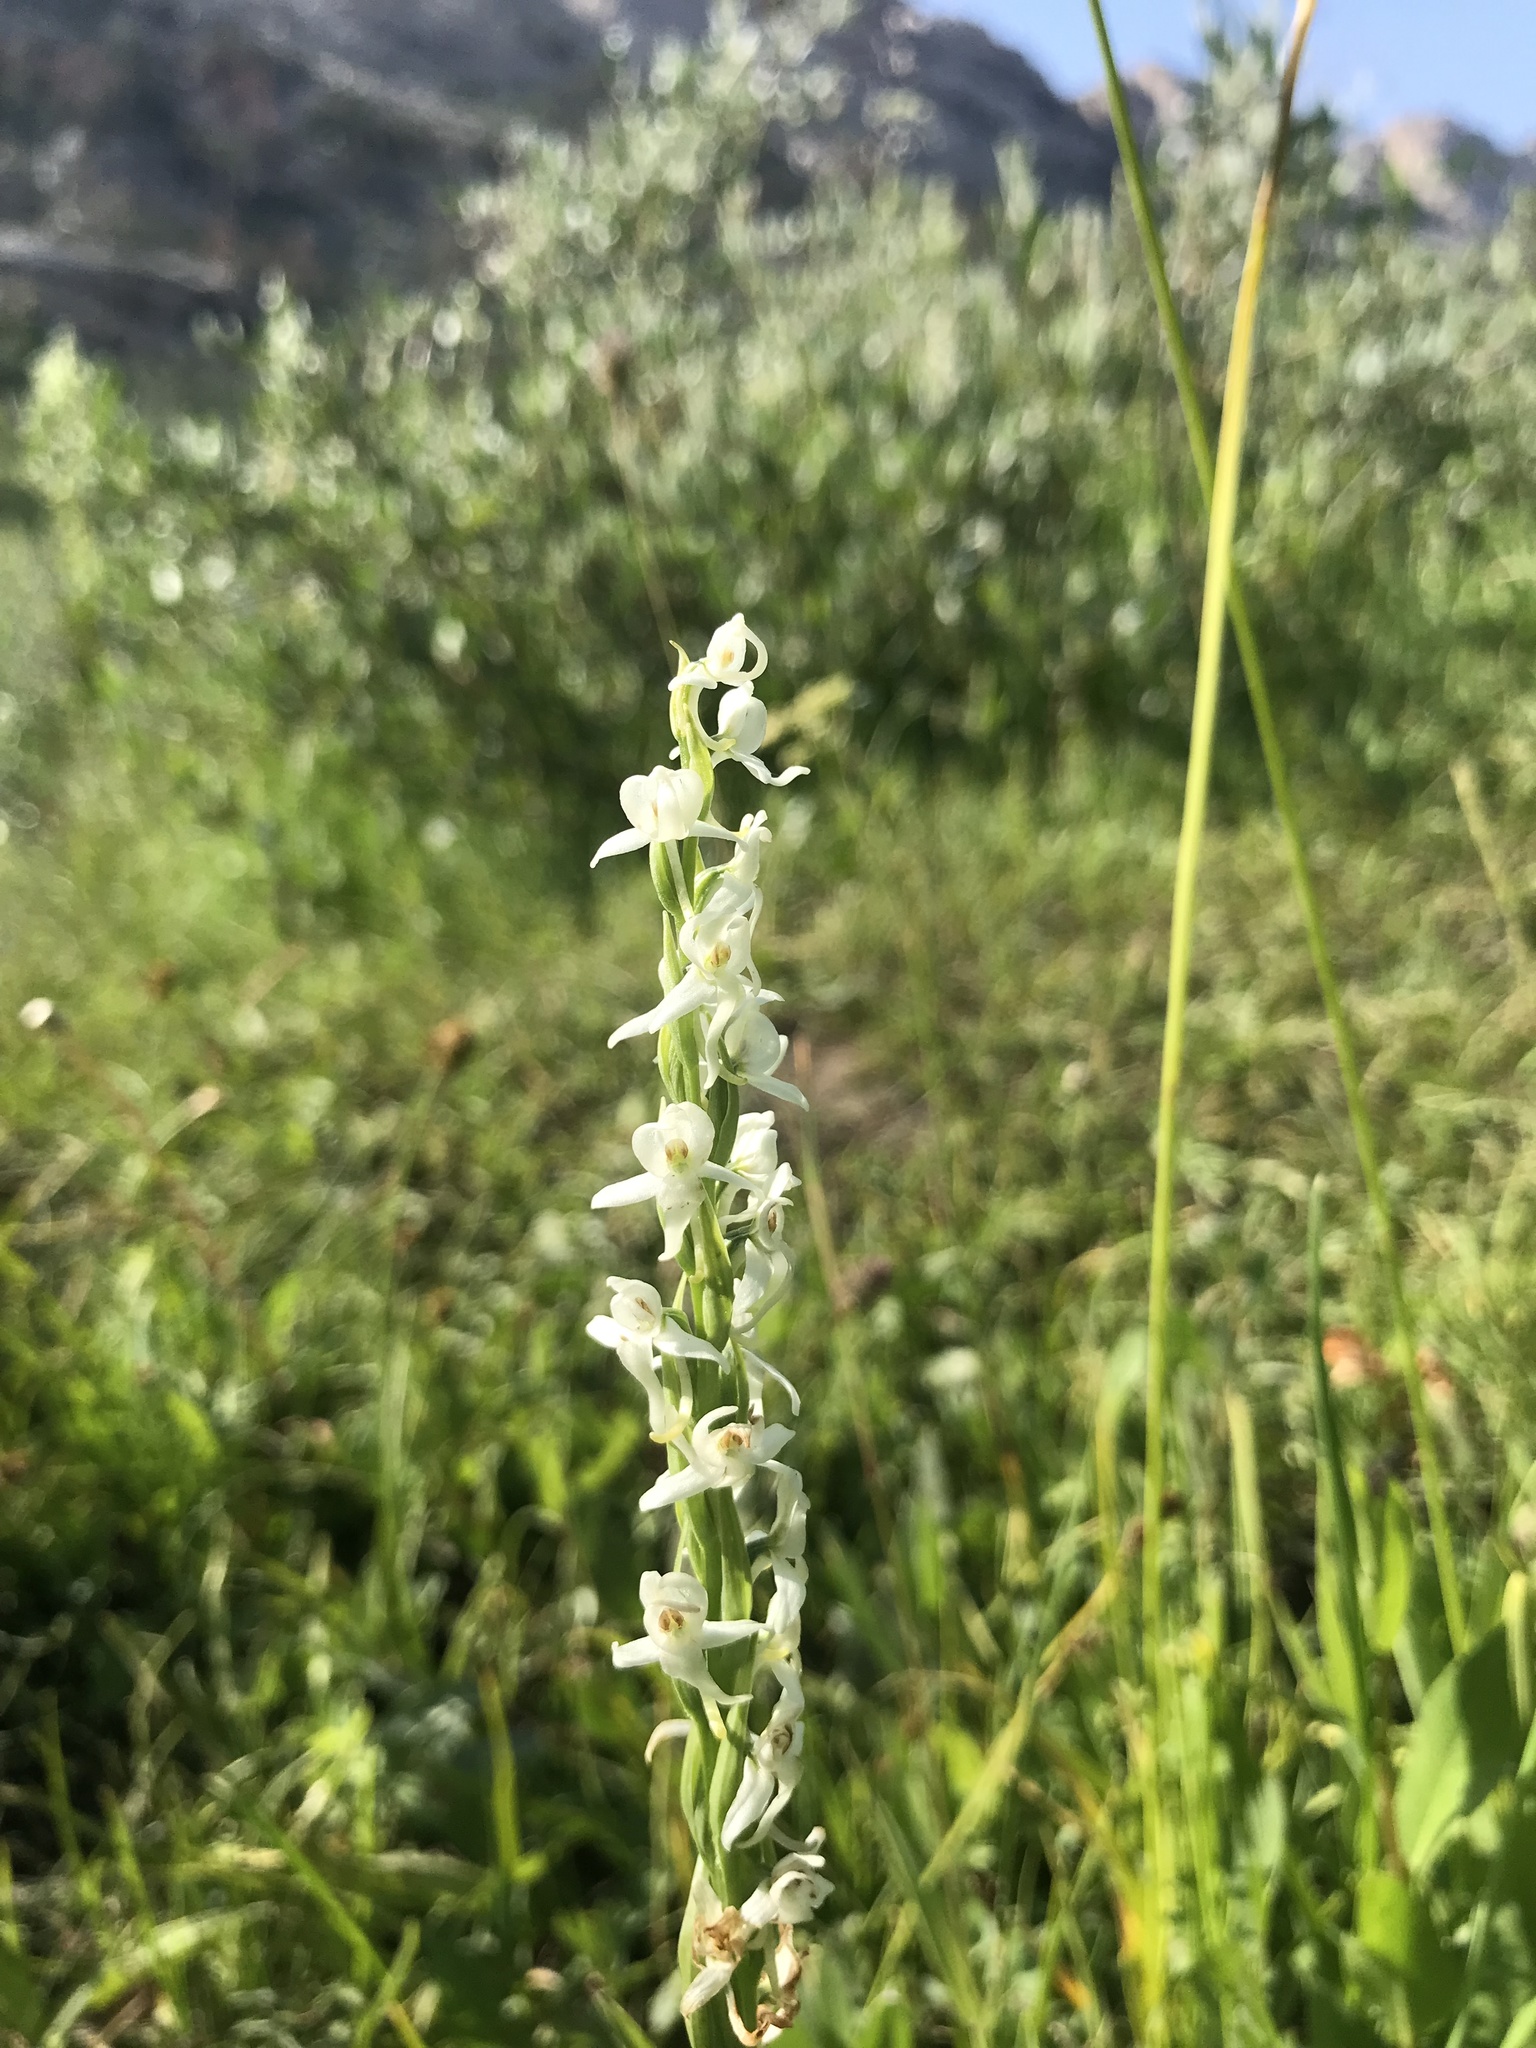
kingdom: Plantae
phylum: Tracheophyta
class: Liliopsida
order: Asparagales
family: Orchidaceae
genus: Platanthera
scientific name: Platanthera dilatata
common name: Bog candles
